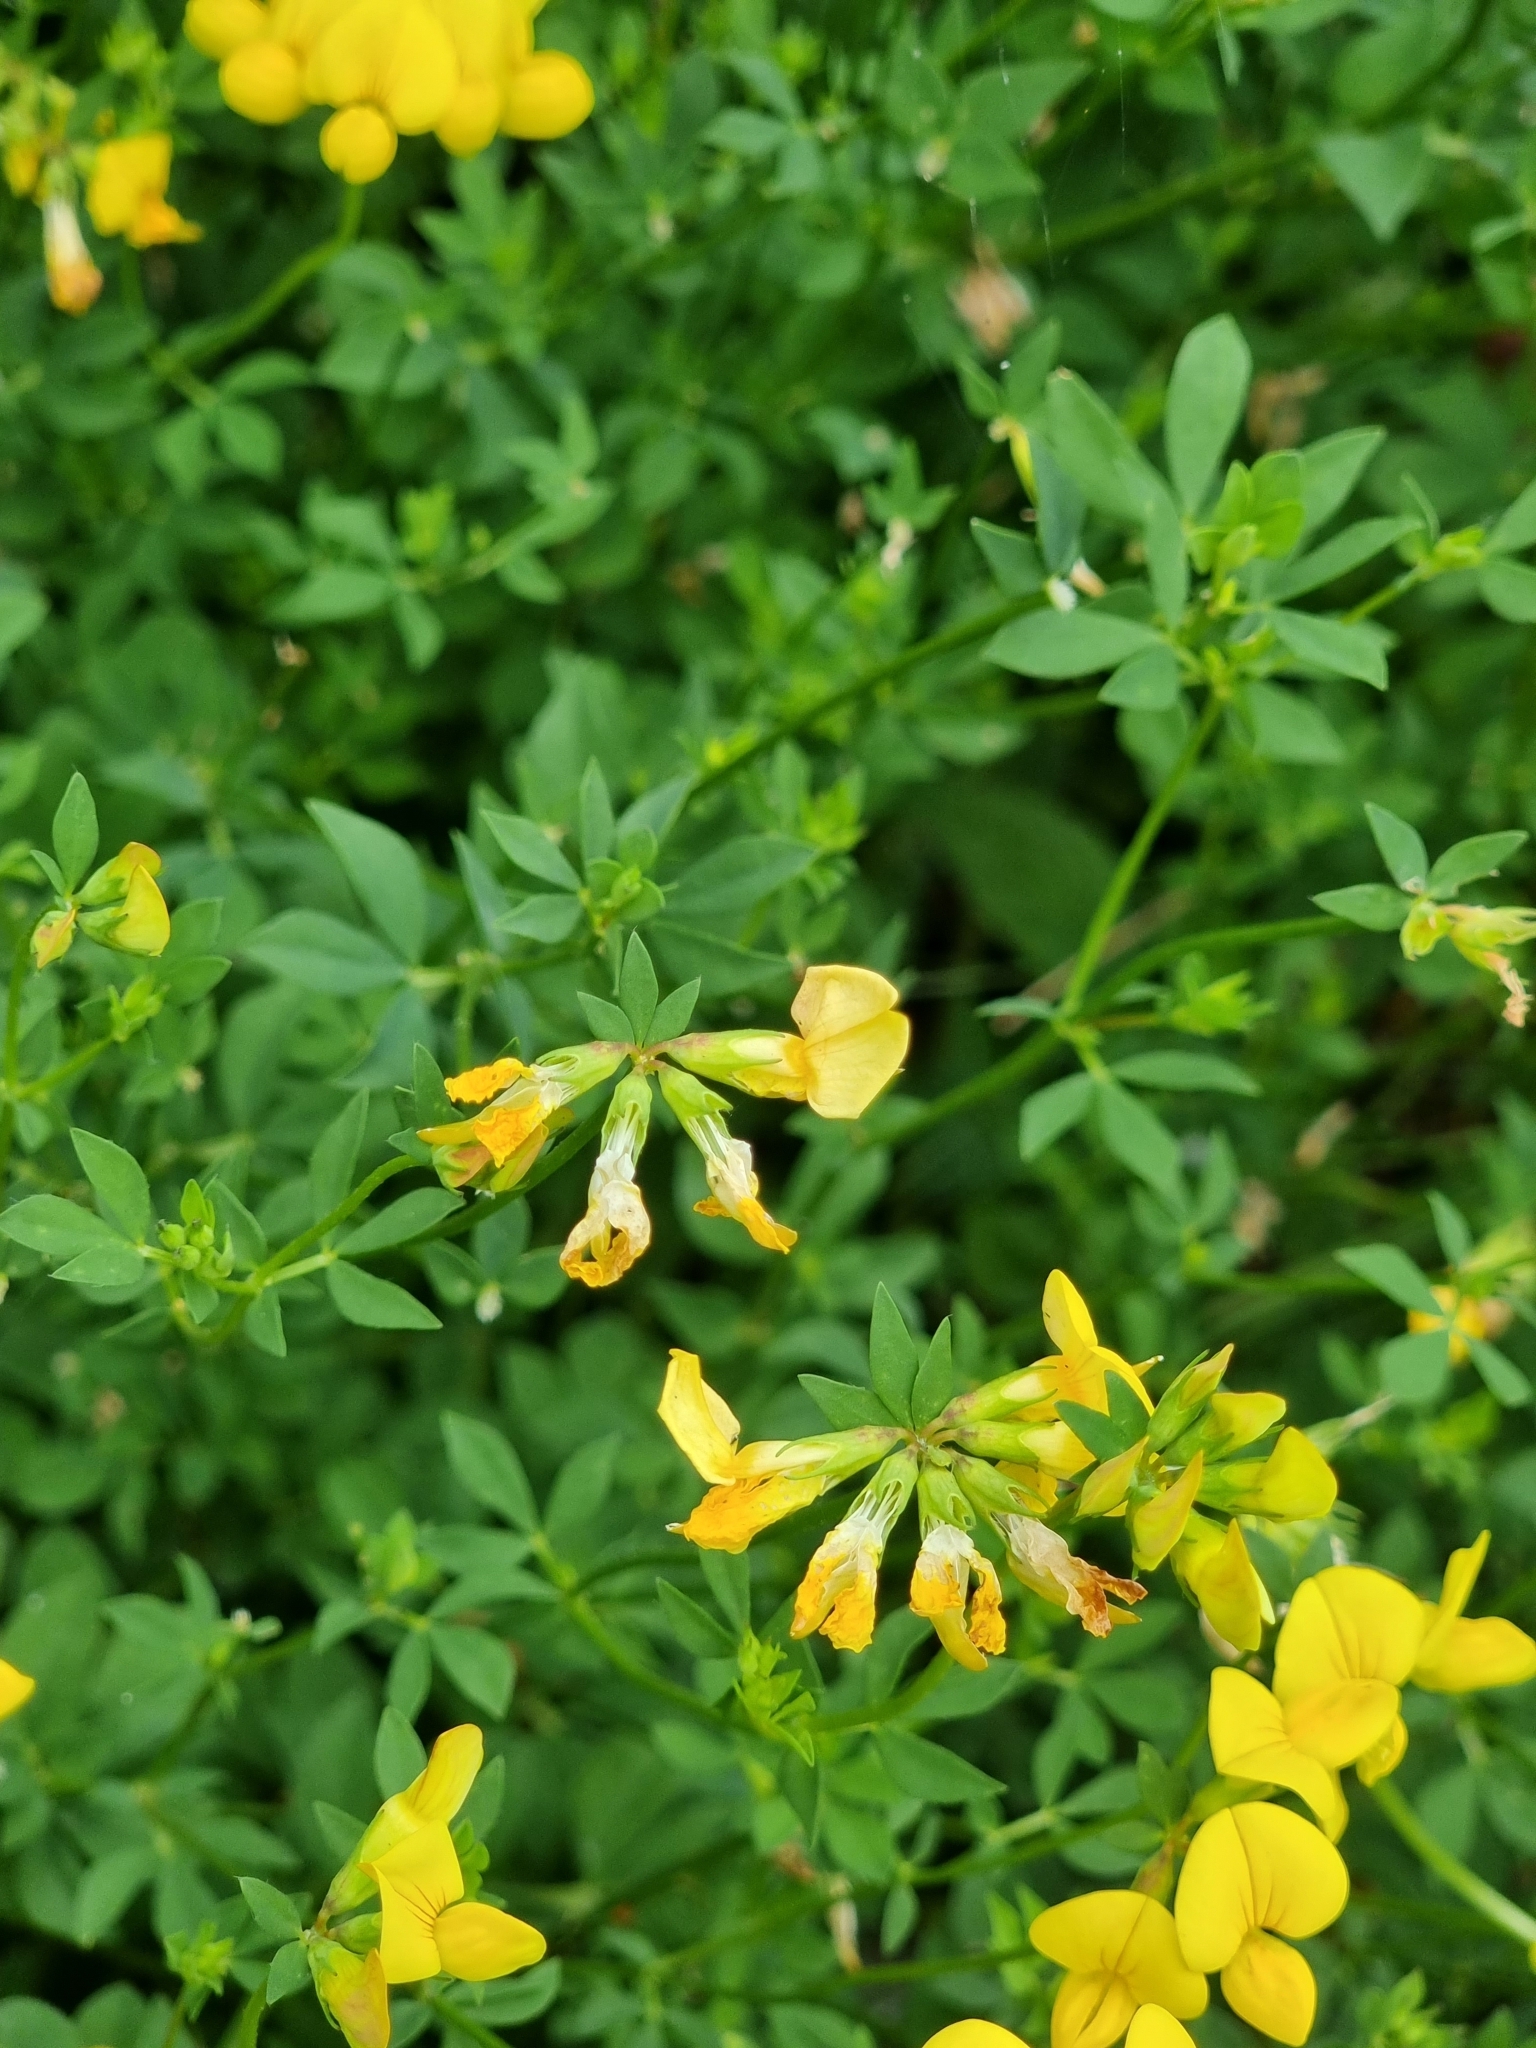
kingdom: Plantae
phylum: Tracheophyta
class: Magnoliopsida
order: Fabales
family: Fabaceae
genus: Lotus
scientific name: Lotus corniculatus
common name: Common bird's-foot-trefoil
